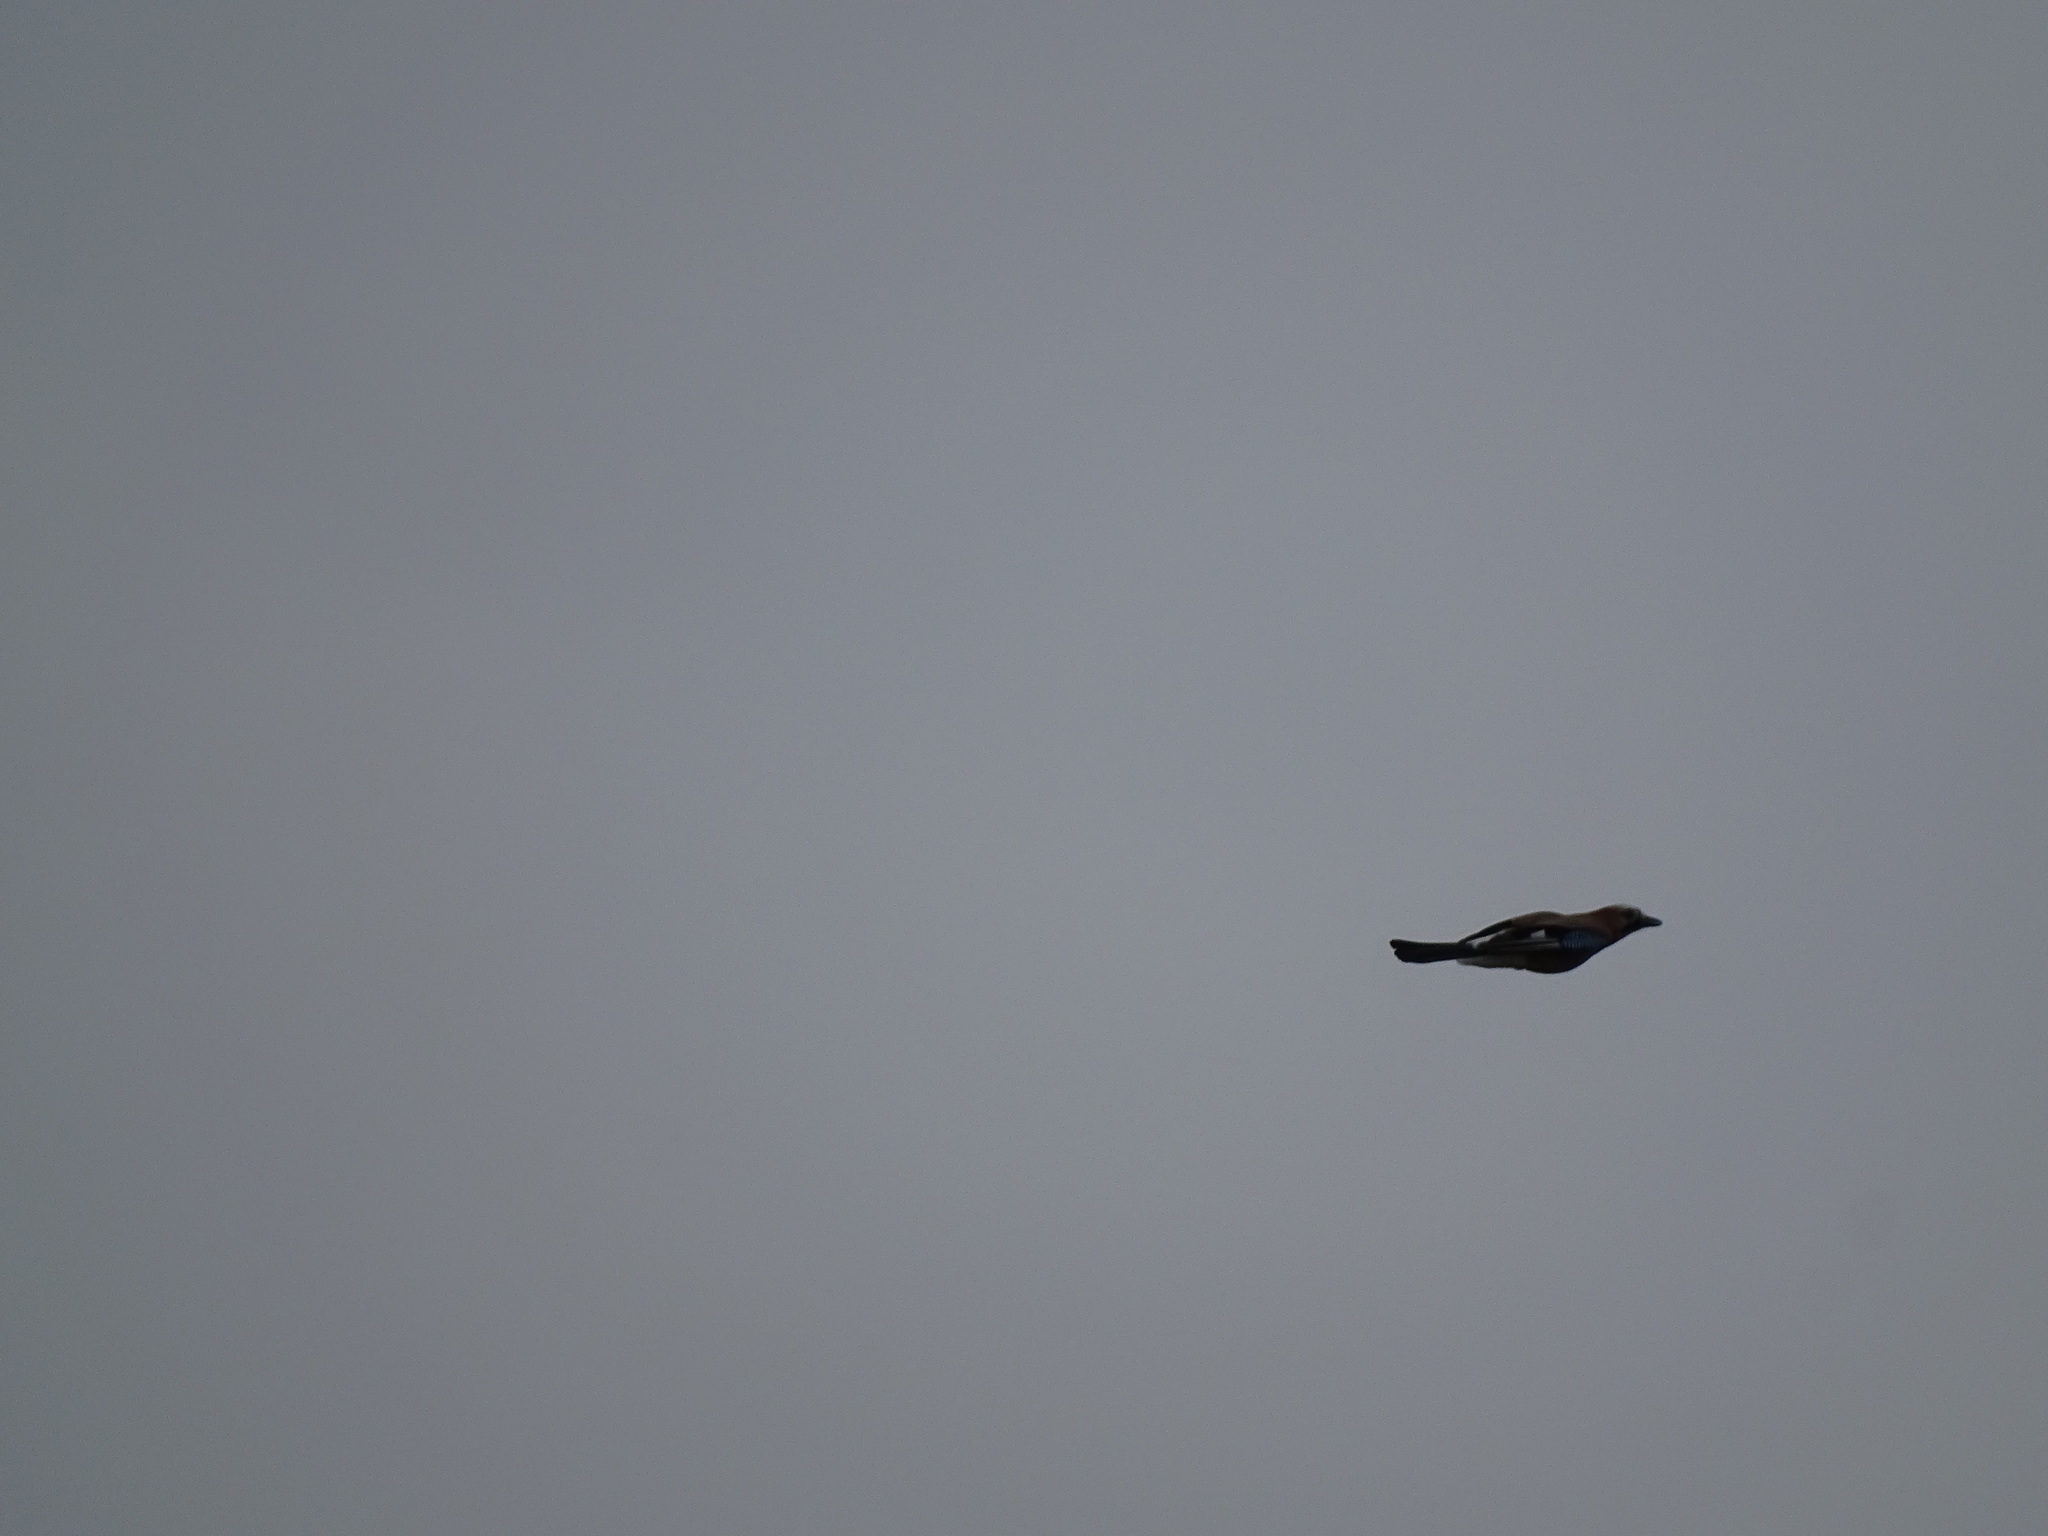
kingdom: Animalia
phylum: Chordata
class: Aves
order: Passeriformes
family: Corvidae
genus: Garrulus
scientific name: Garrulus glandarius
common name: Eurasian jay
